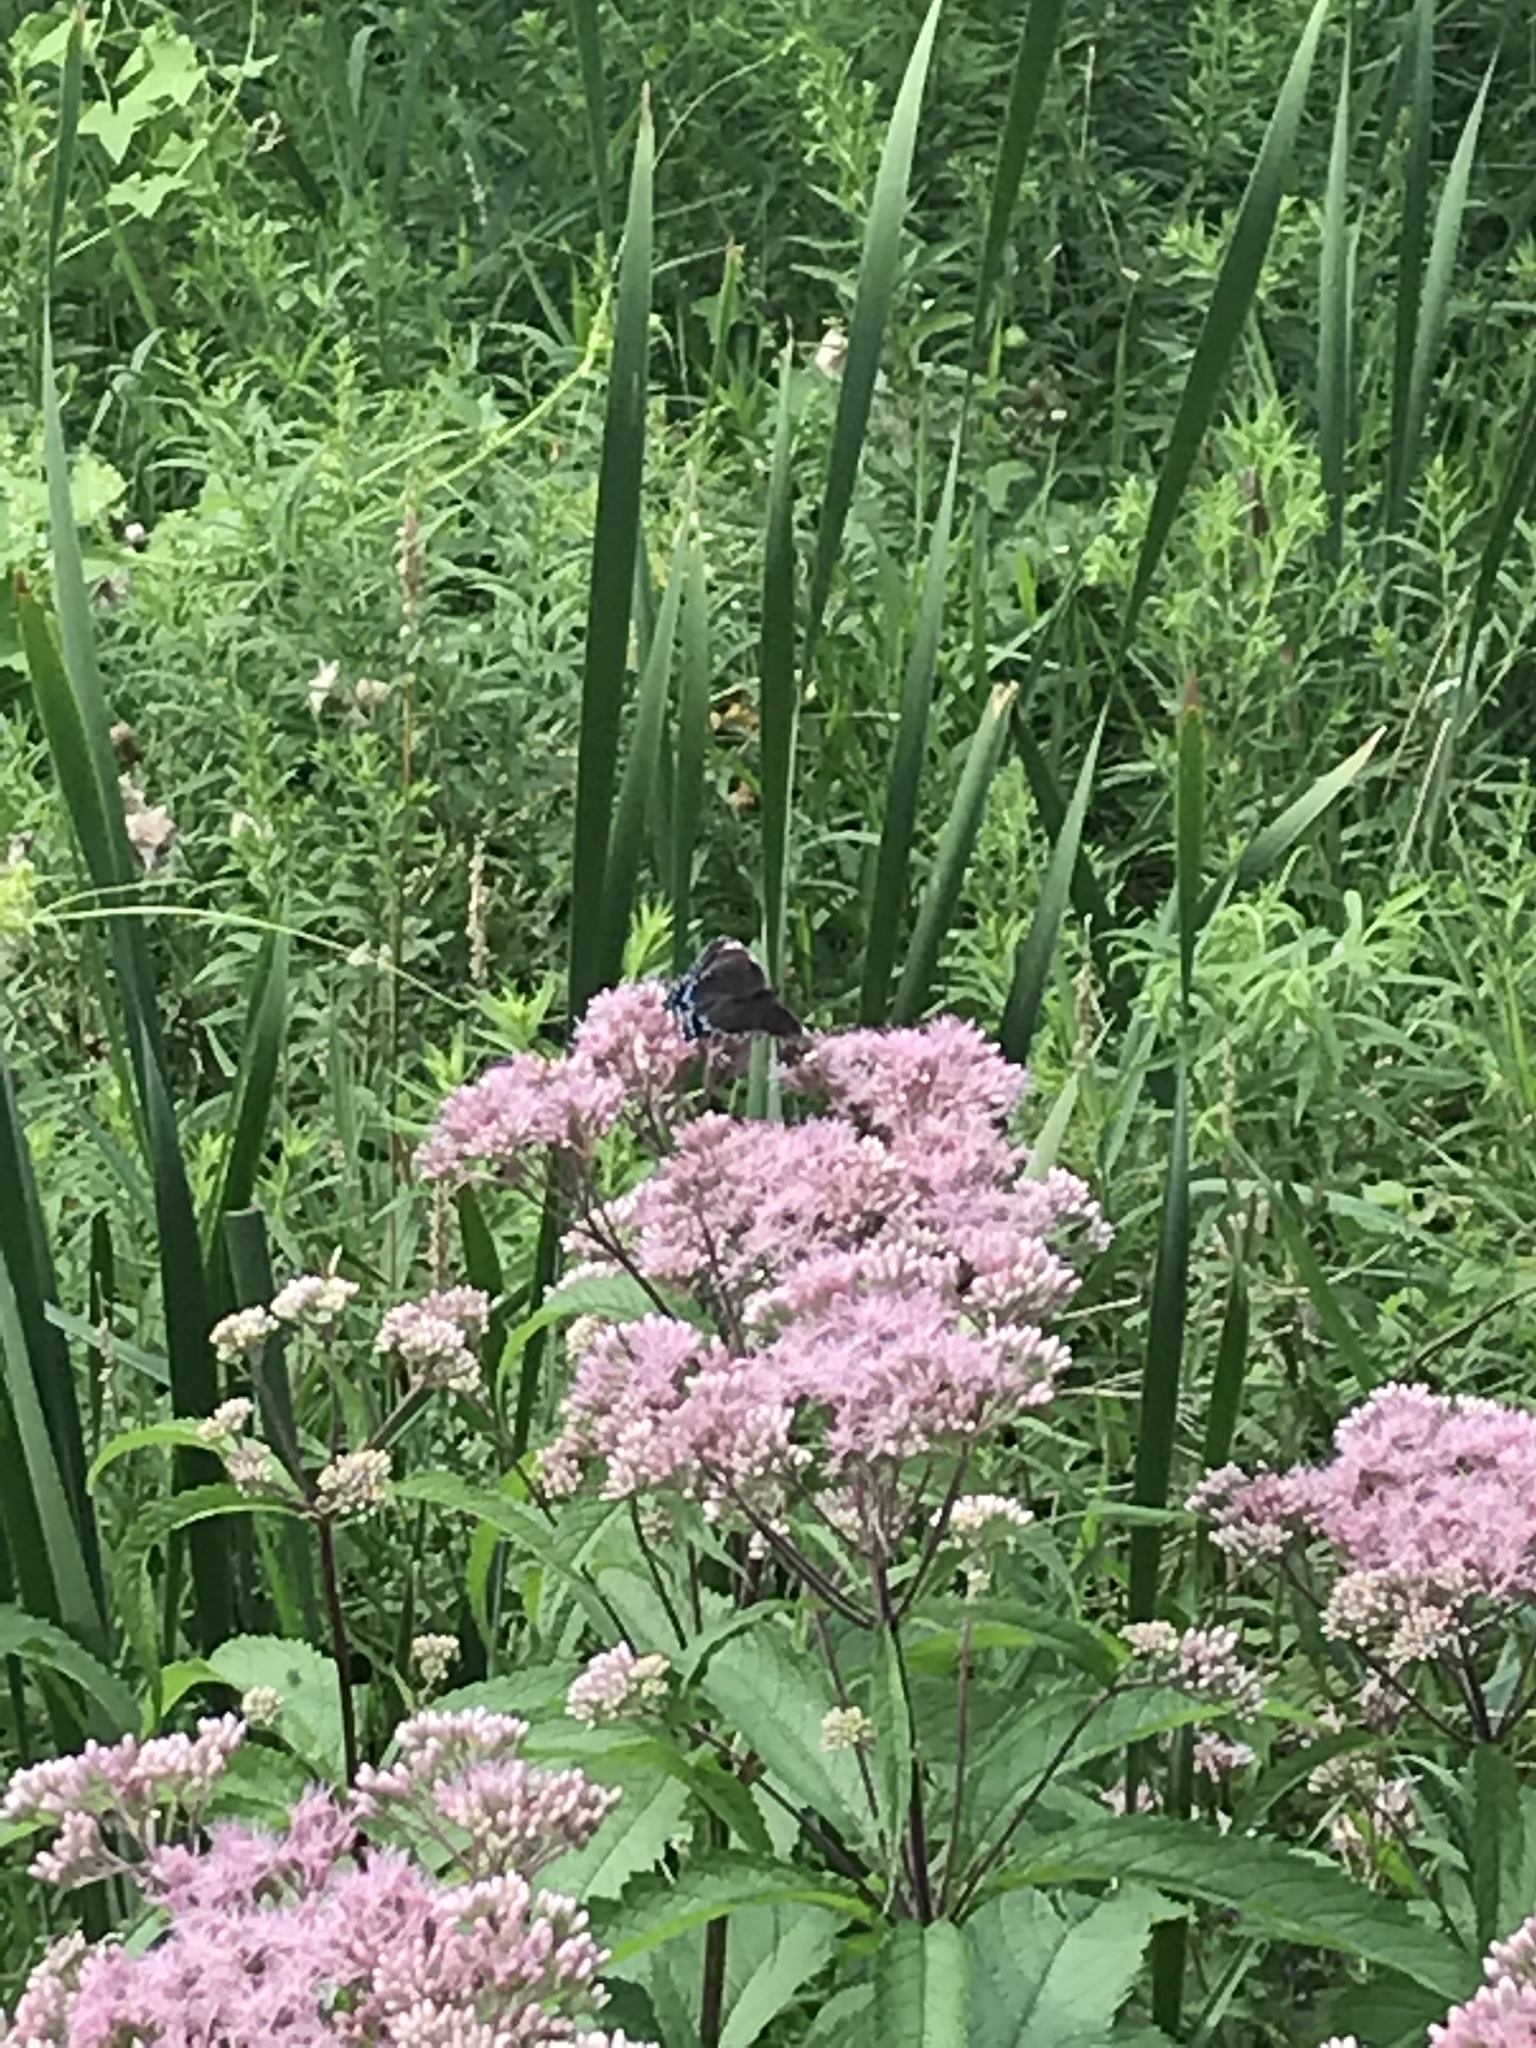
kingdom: Animalia
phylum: Arthropoda
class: Insecta
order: Lepidoptera
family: Nymphalidae
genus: Limenitis
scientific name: Limenitis astyanax
